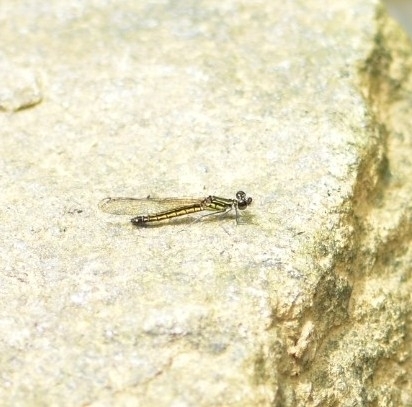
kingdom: Animalia
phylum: Arthropoda
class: Insecta
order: Odonata
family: Chlorocyphidae
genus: Libellago
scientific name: Libellago indica
